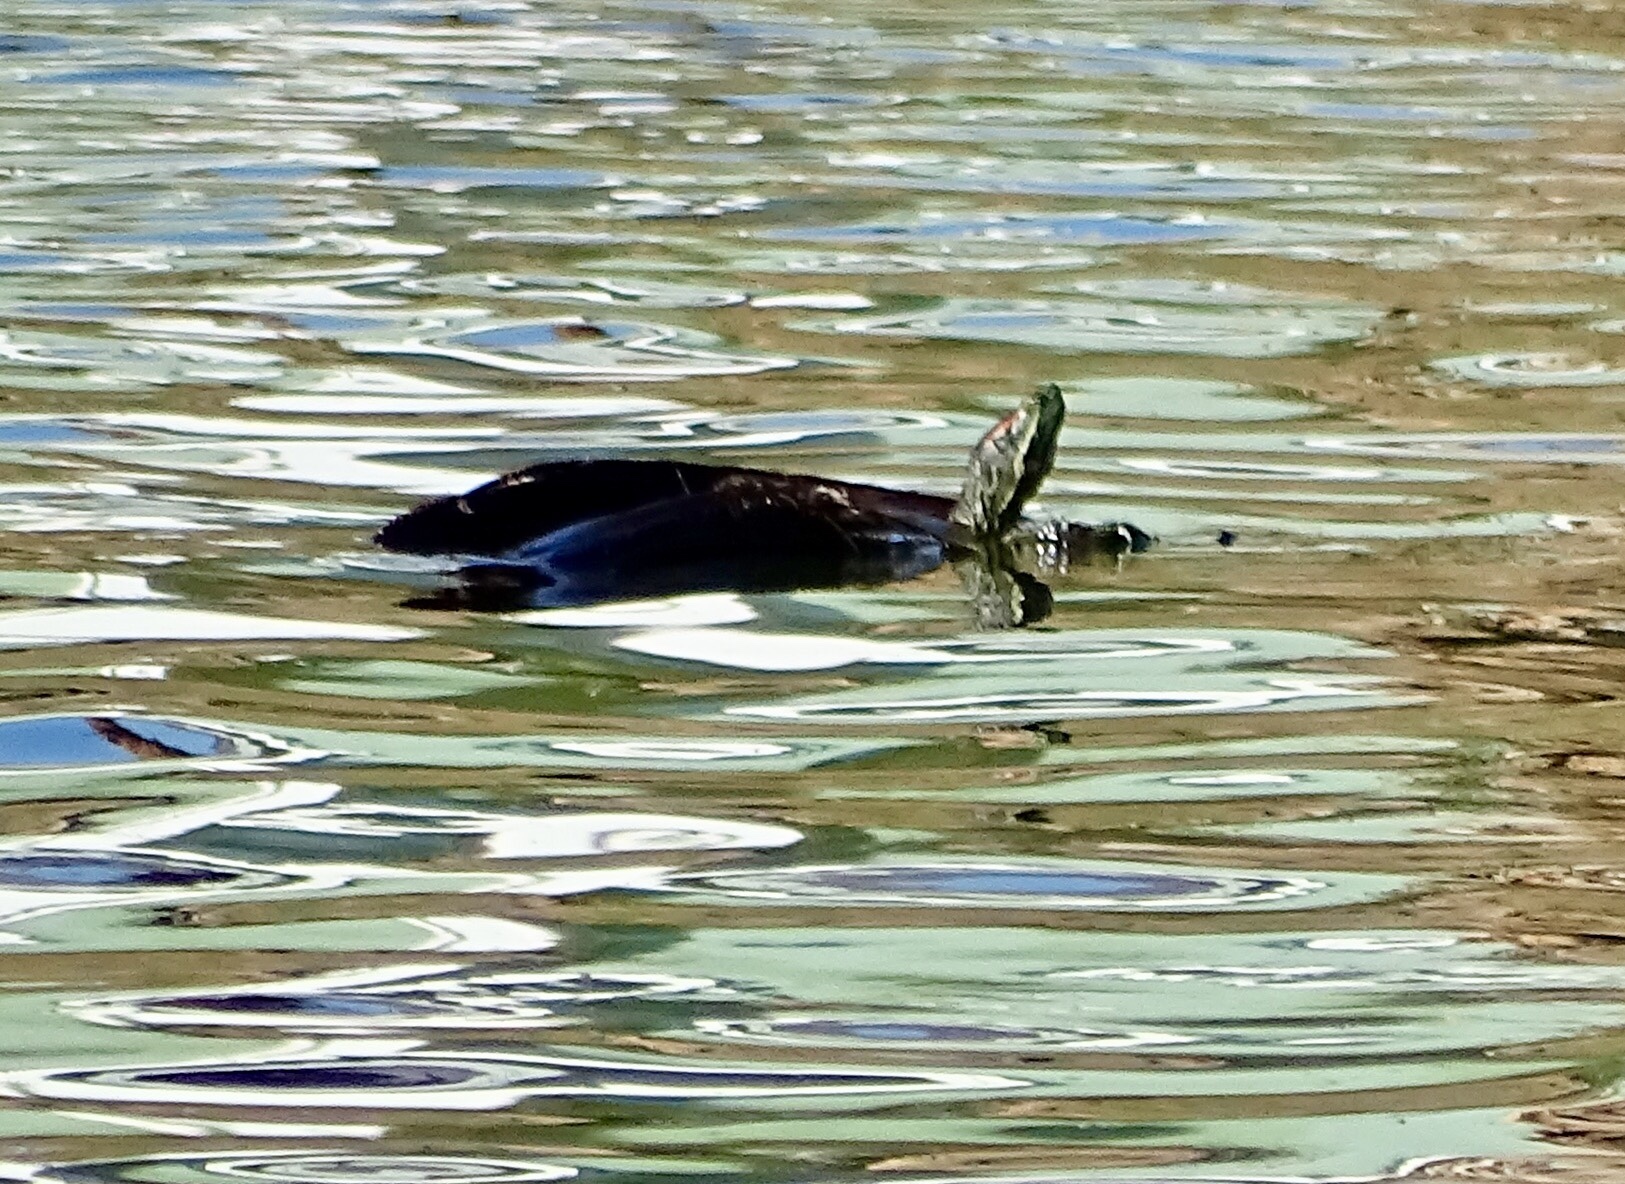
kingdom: Animalia
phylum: Chordata
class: Testudines
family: Emydidae
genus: Trachemys
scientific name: Trachemys scripta
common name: Slider
